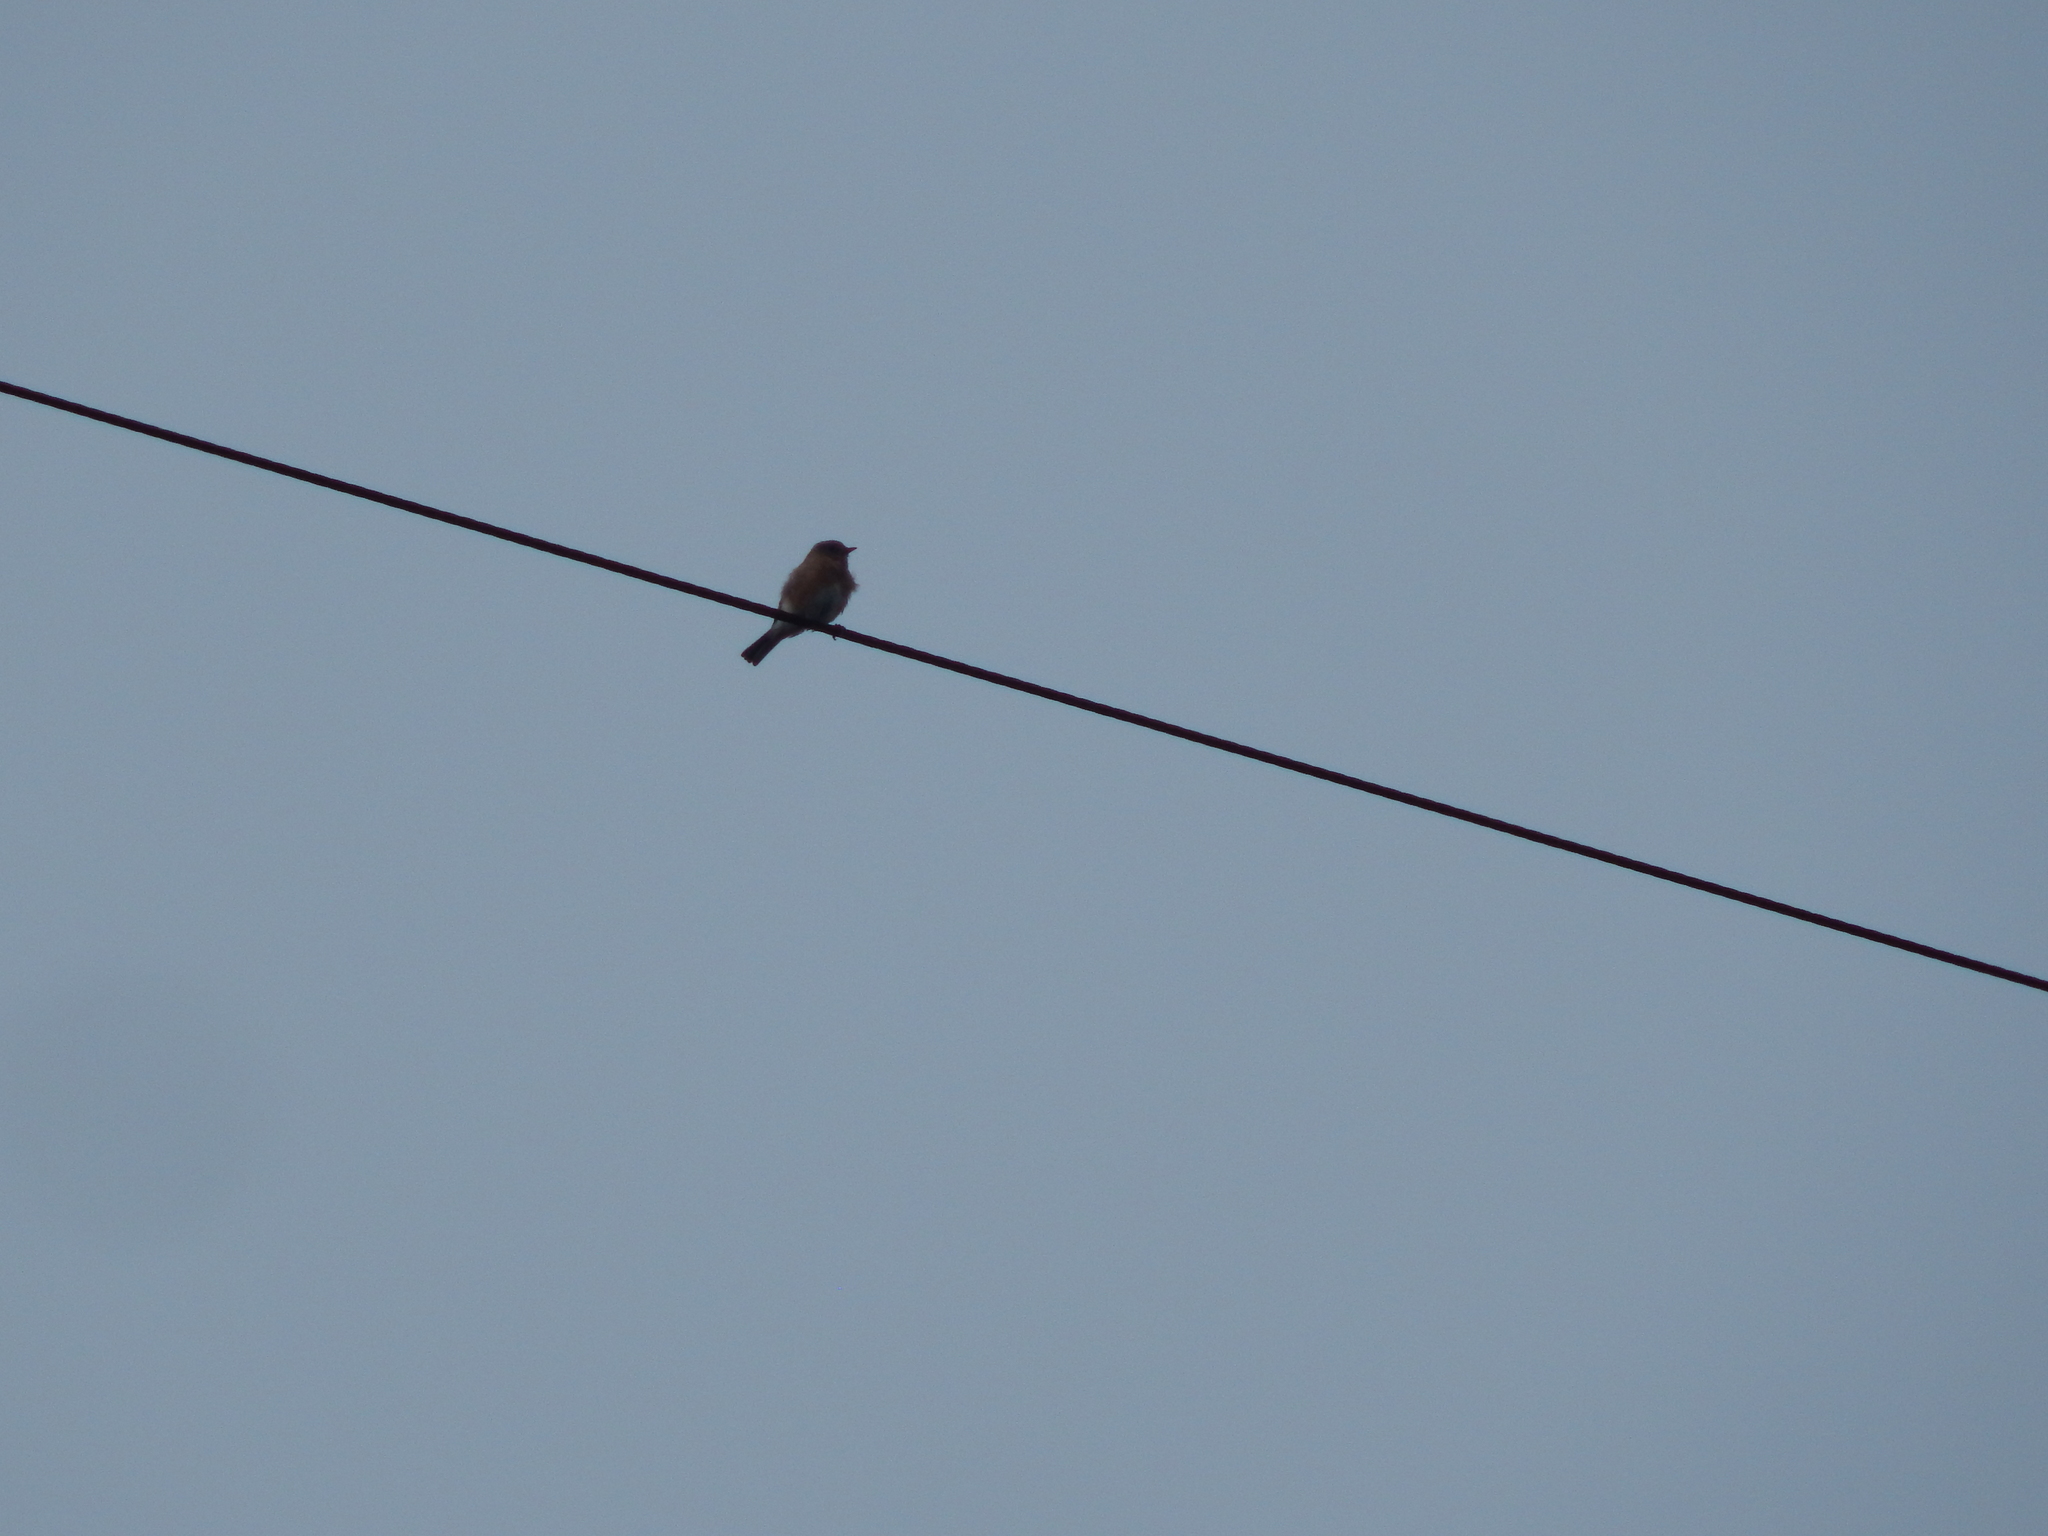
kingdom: Animalia
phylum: Chordata
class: Aves
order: Passeriformes
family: Turdidae
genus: Sialia
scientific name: Sialia sialis
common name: Eastern bluebird
